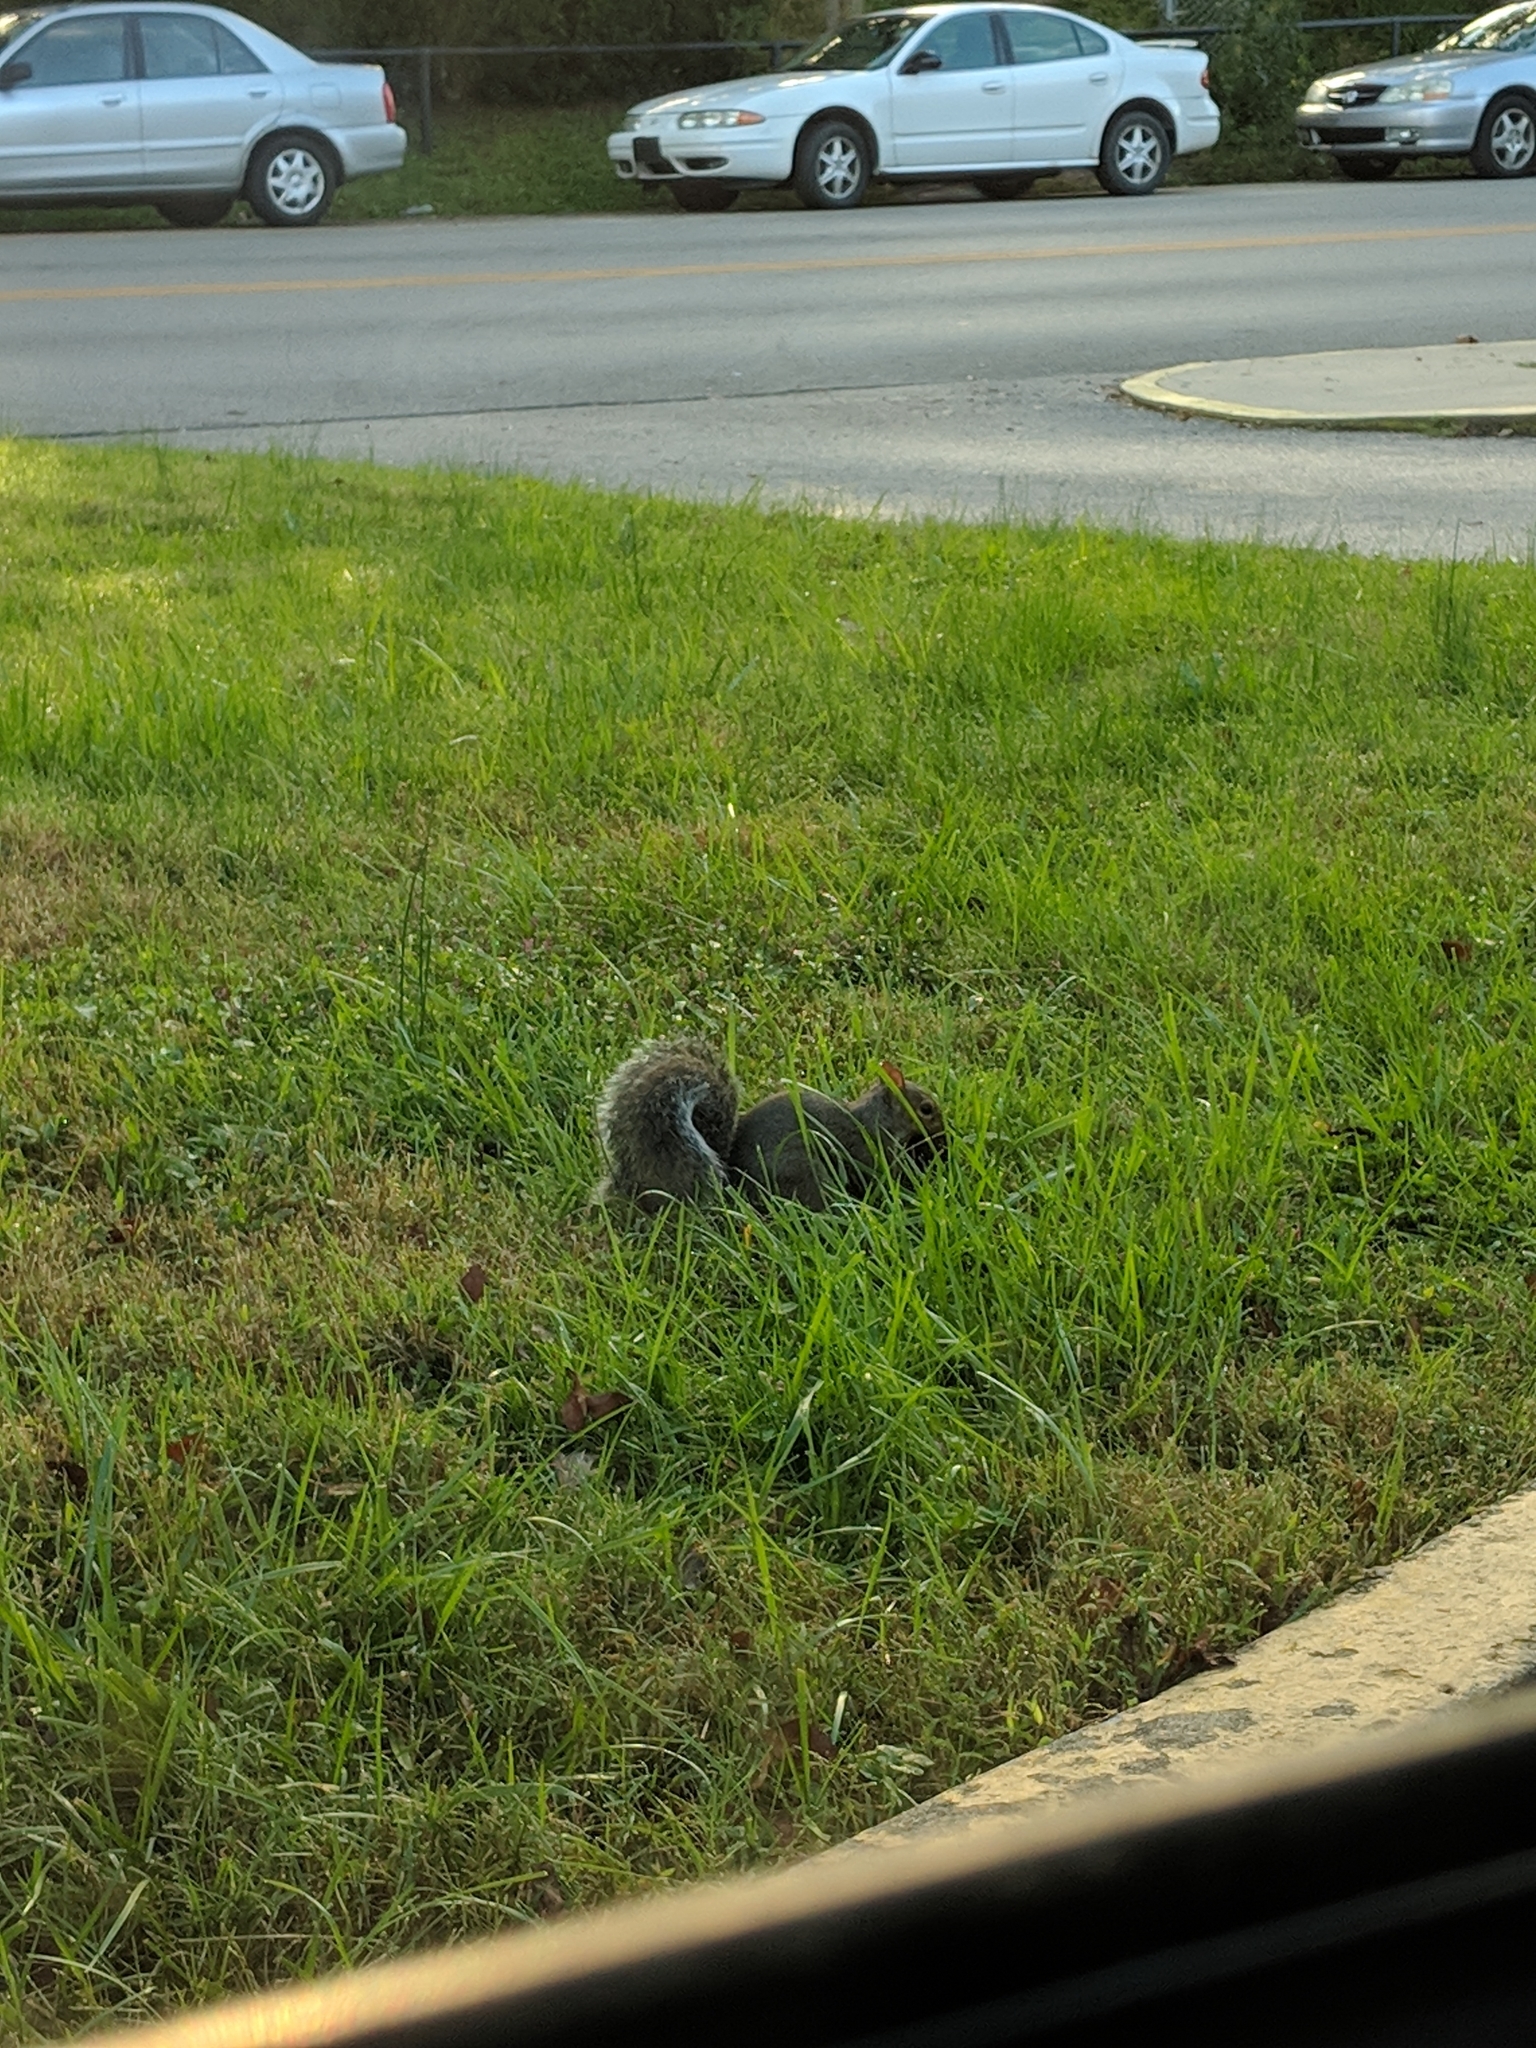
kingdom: Animalia
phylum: Chordata
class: Mammalia
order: Rodentia
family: Sciuridae
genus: Sciurus
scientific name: Sciurus carolinensis
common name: Eastern gray squirrel
